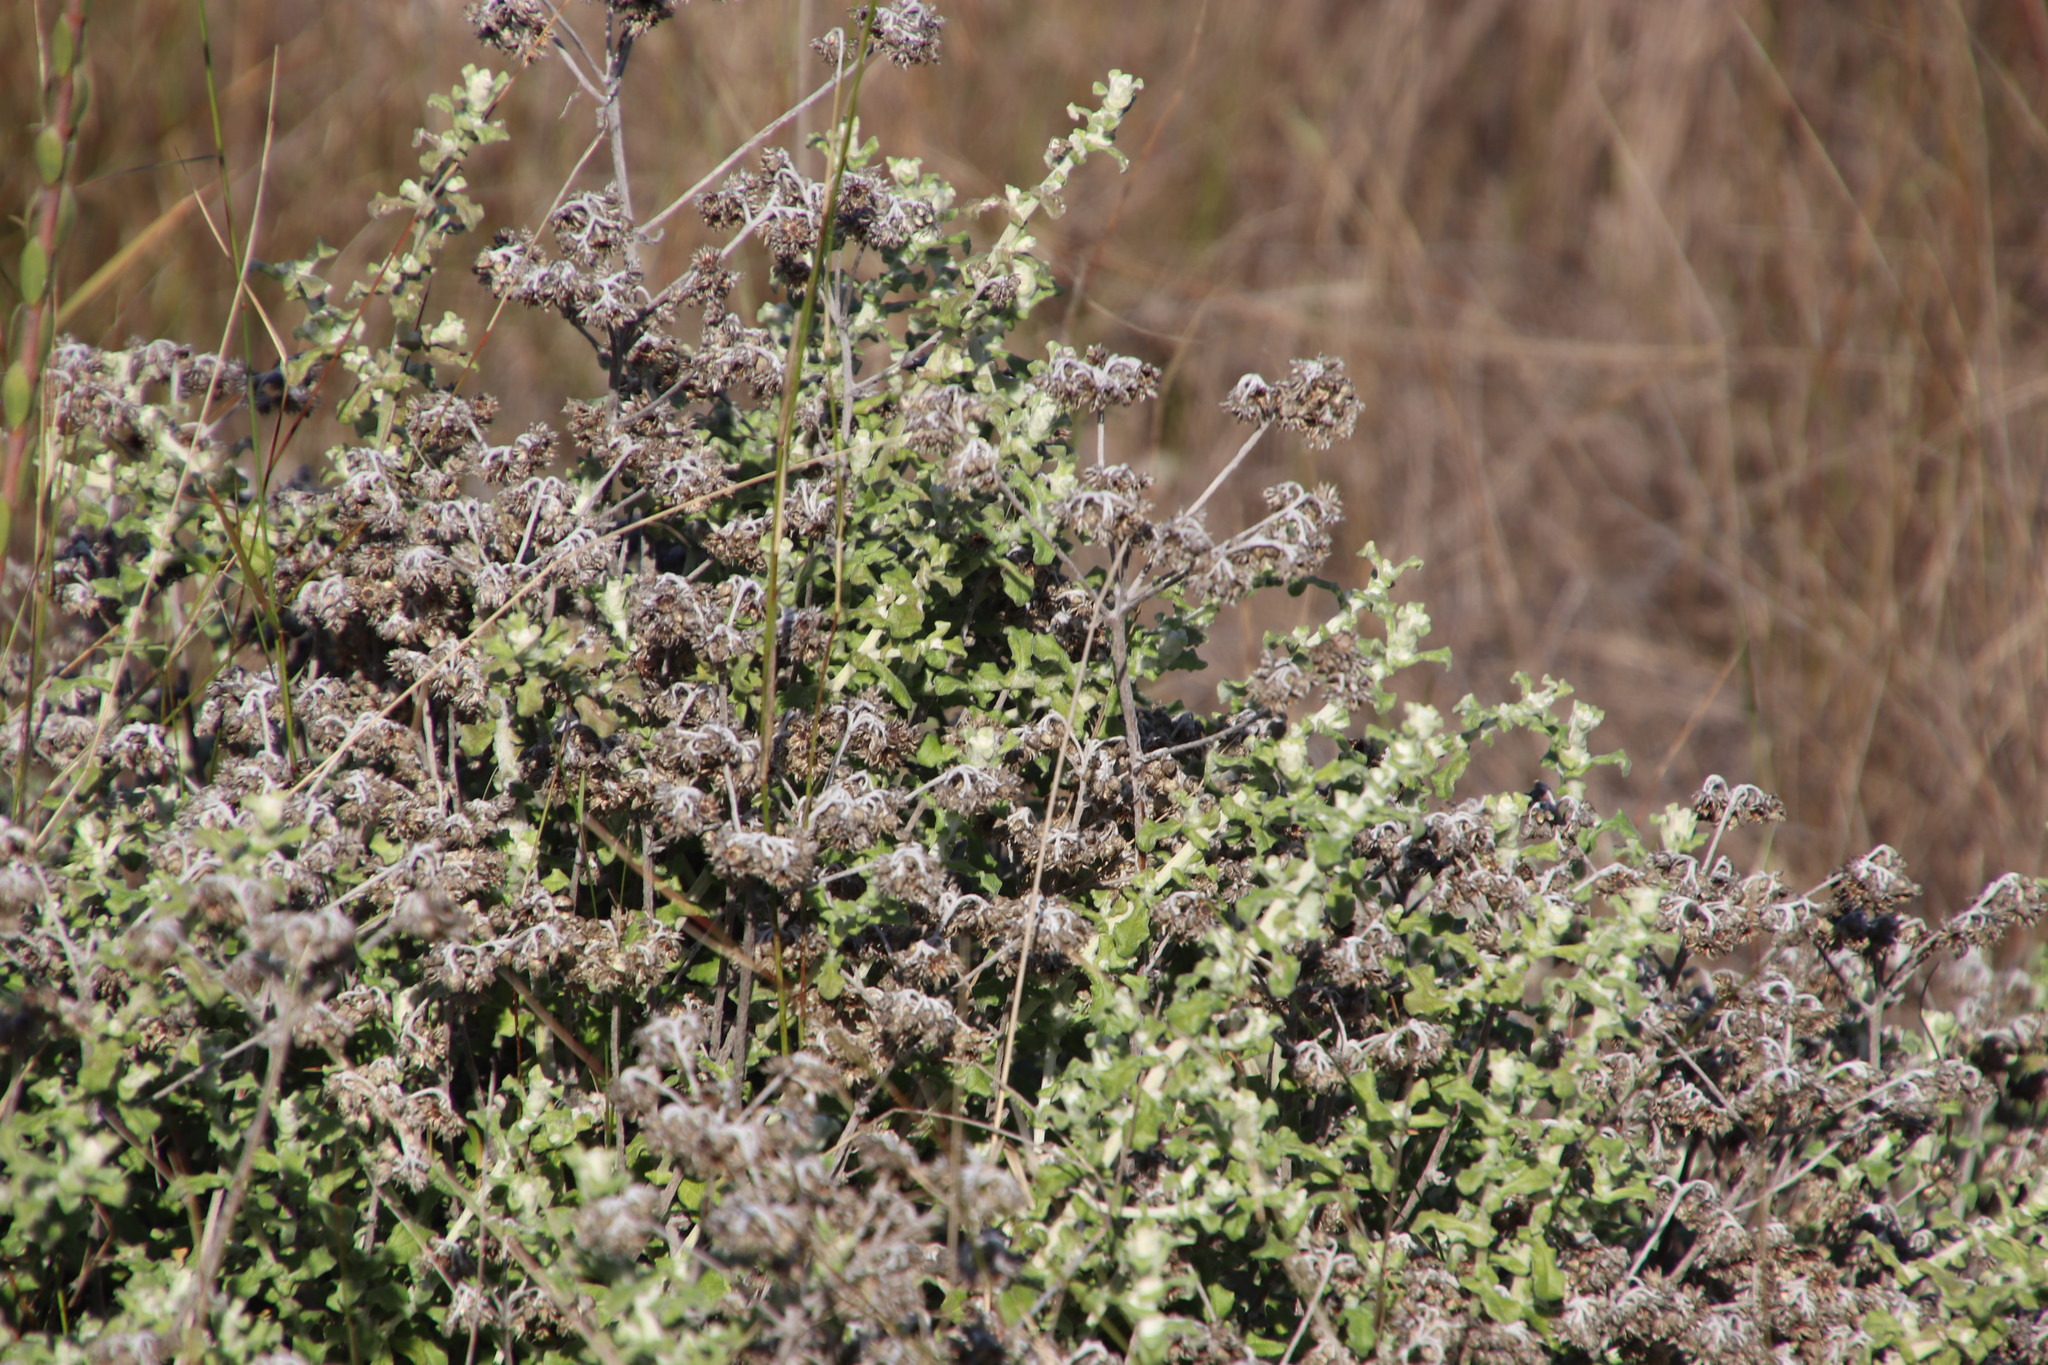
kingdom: Plantae
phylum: Tracheophyta
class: Magnoliopsida
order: Asterales
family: Asteraceae
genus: Helichrysum
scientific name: Helichrysum patulum
